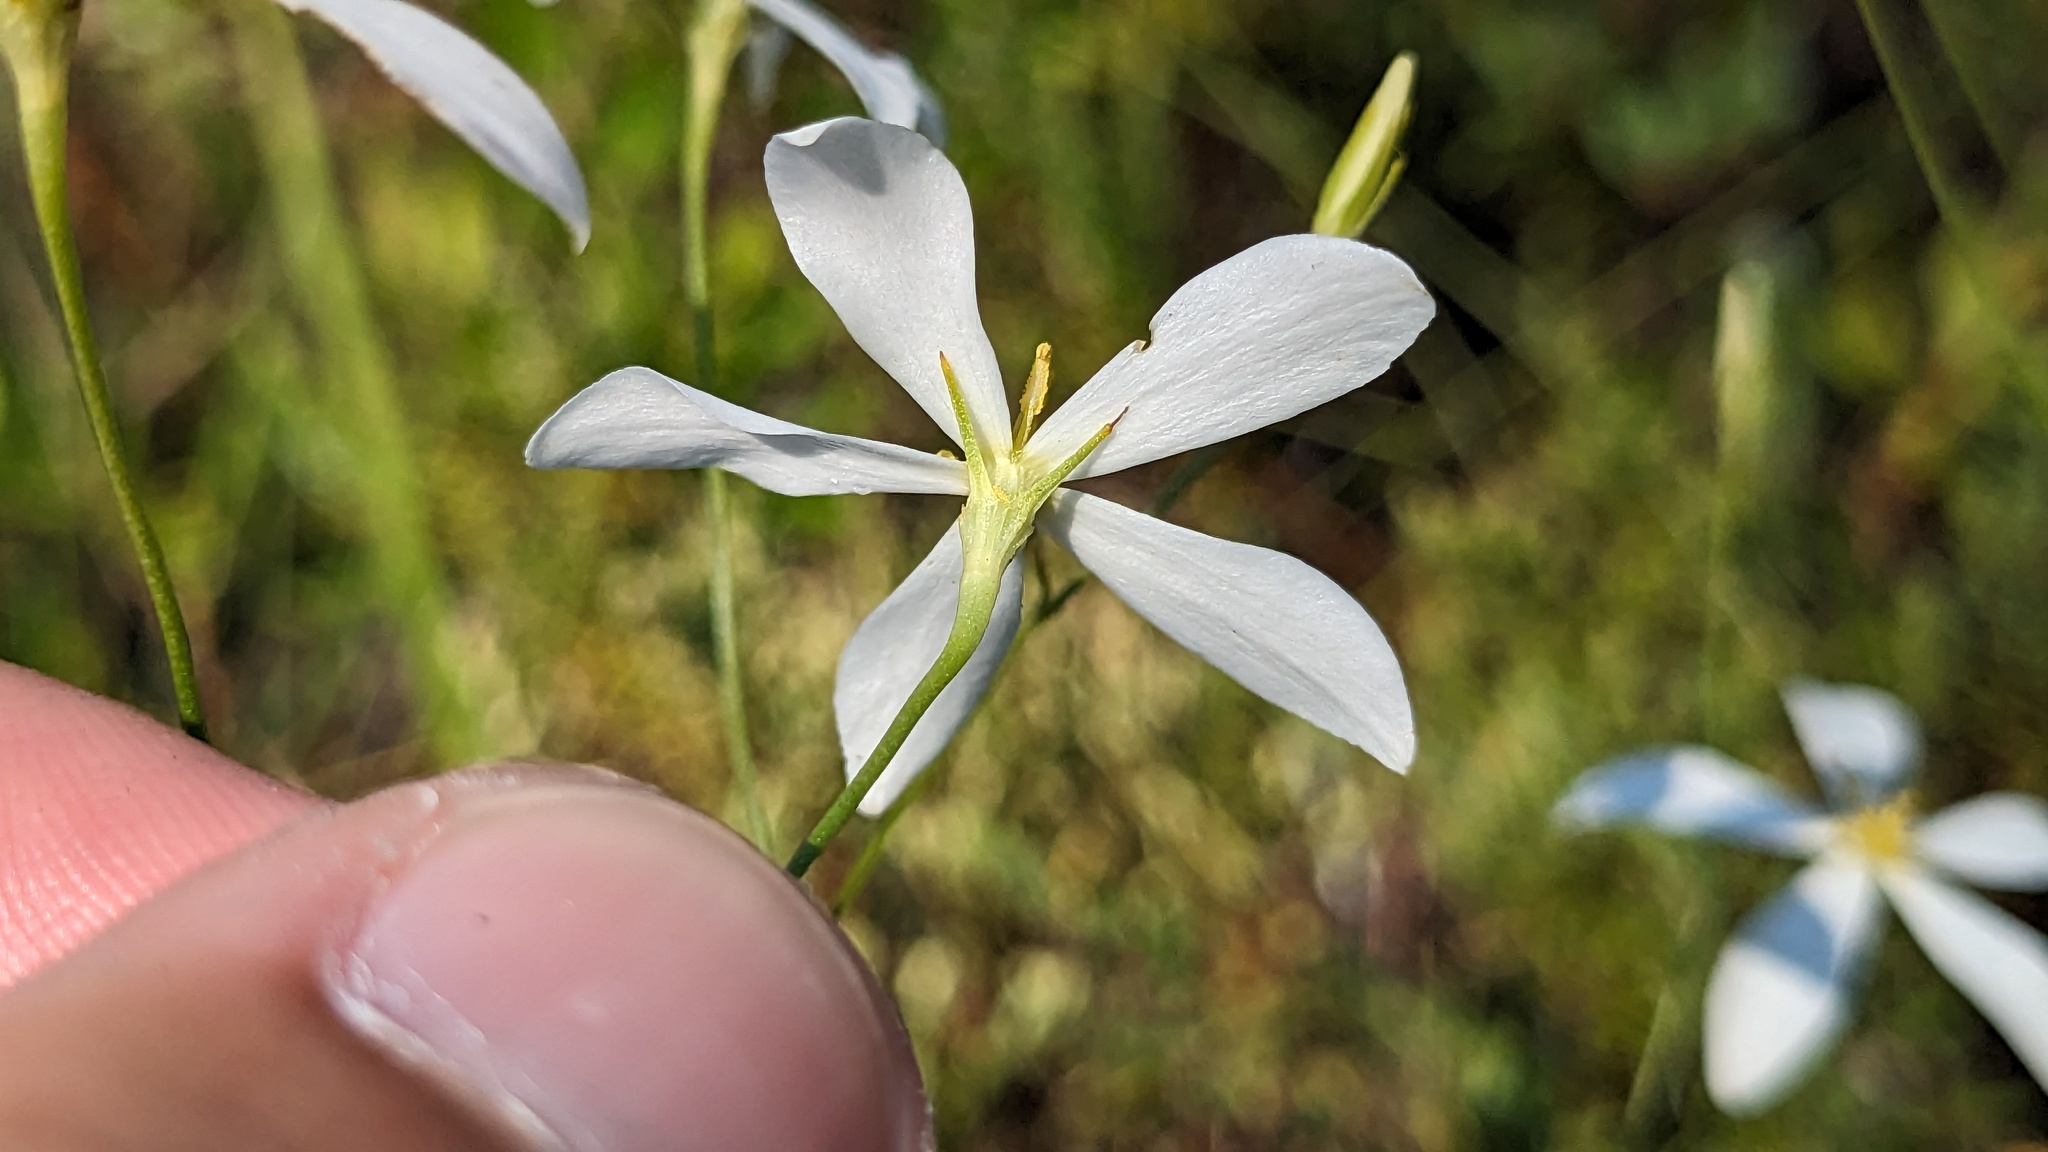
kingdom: Plantae
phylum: Tracheophyta
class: Magnoliopsida
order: Gentianales
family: Gentianaceae
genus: Sabatia
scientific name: Sabatia brevifolia
